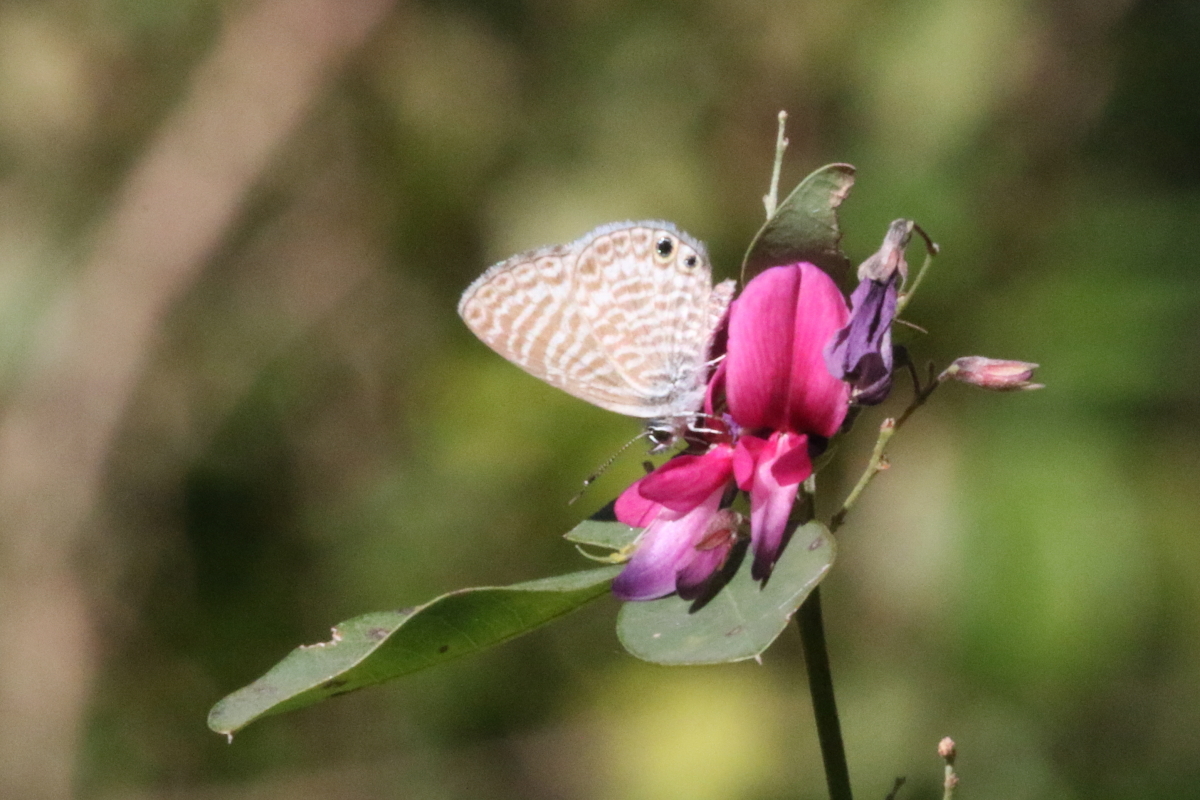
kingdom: Animalia
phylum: Arthropoda
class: Insecta
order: Lepidoptera
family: Lycaenidae
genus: Leptotes
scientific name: Leptotes marina
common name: Marine blue
